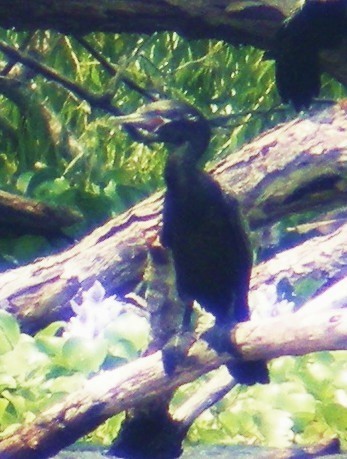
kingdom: Animalia
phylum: Chordata
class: Aves
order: Suliformes
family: Phalacrocoracidae
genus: Phalacrocorax
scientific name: Phalacrocorax brasilianus
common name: Neotropic cormorant
